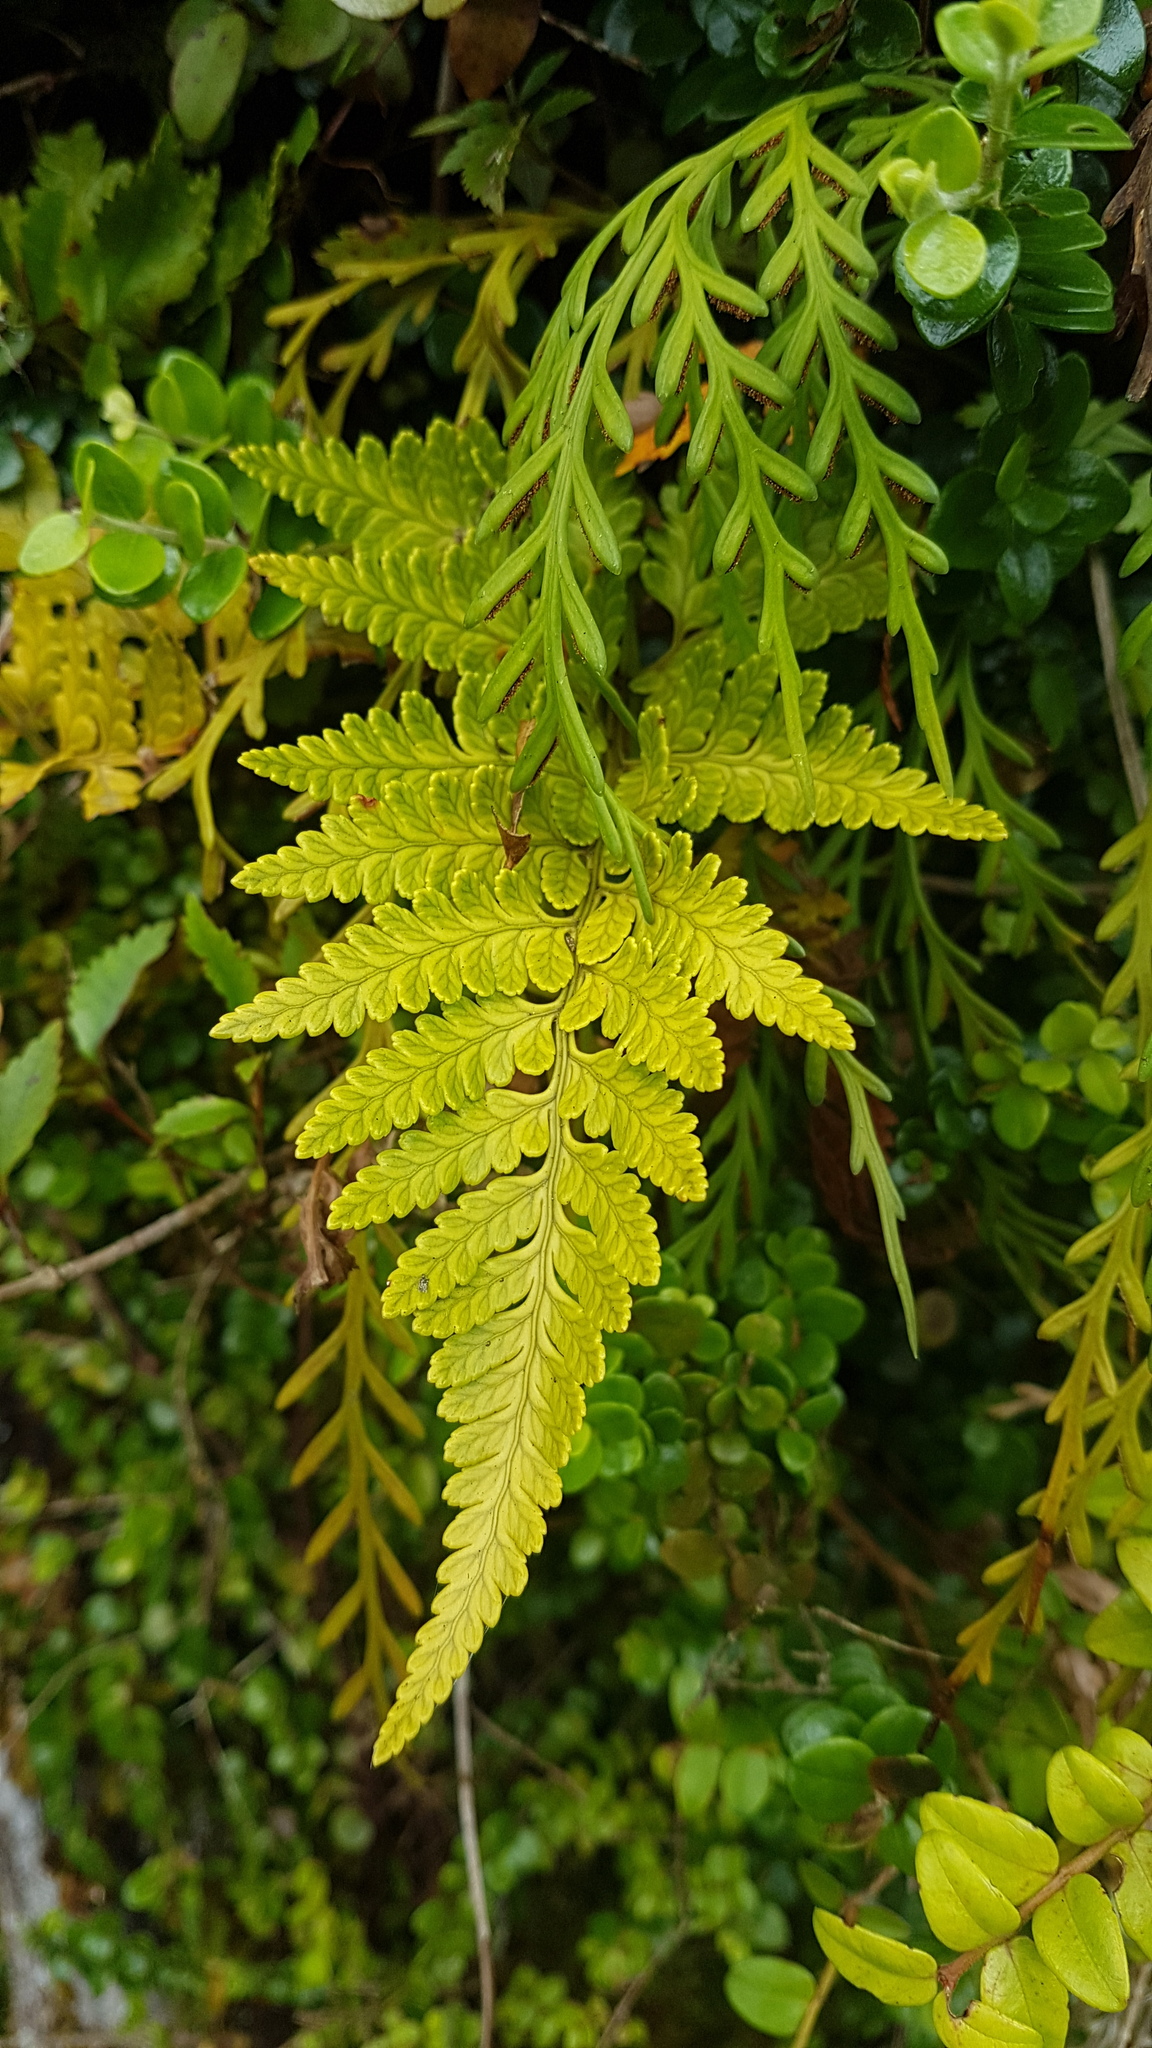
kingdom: Plantae
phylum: Tracheophyta
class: Polypodiopsida
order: Polypodiales
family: Dryopteridaceae
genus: Rumohra
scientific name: Rumohra adiantiformis
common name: Leather fern
